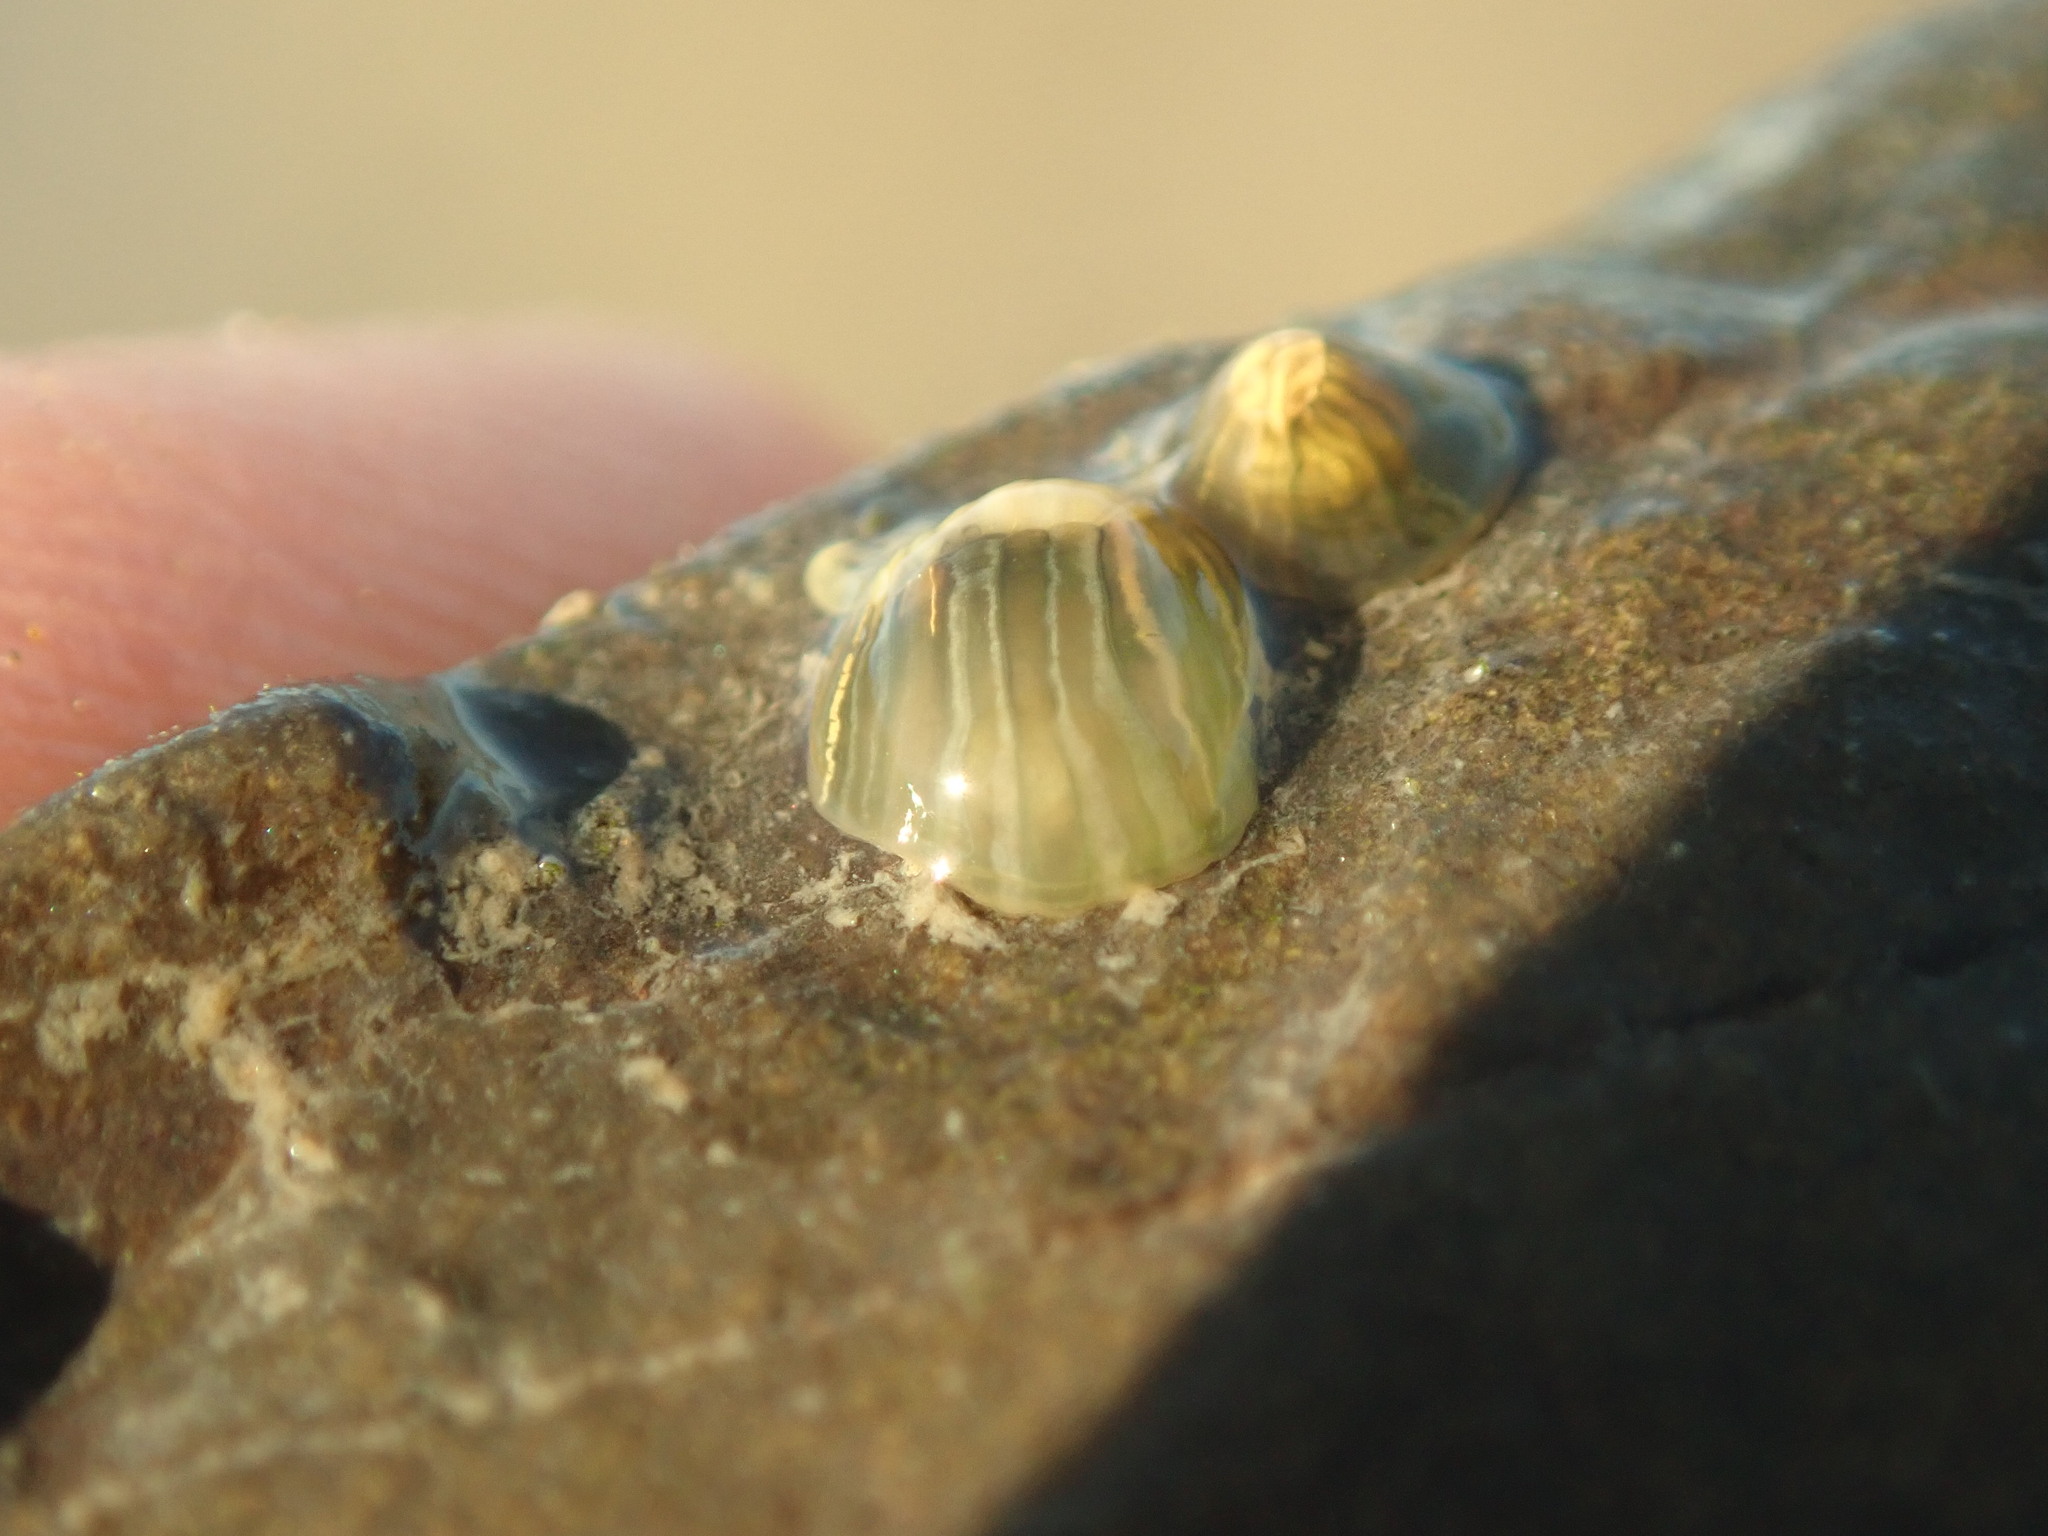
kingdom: Animalia
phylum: Cnidaria
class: Anthozoa
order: Actiniaria
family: Diadumenidae
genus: Diadumene
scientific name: Diadumene lineata
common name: Orange-striped anemone
